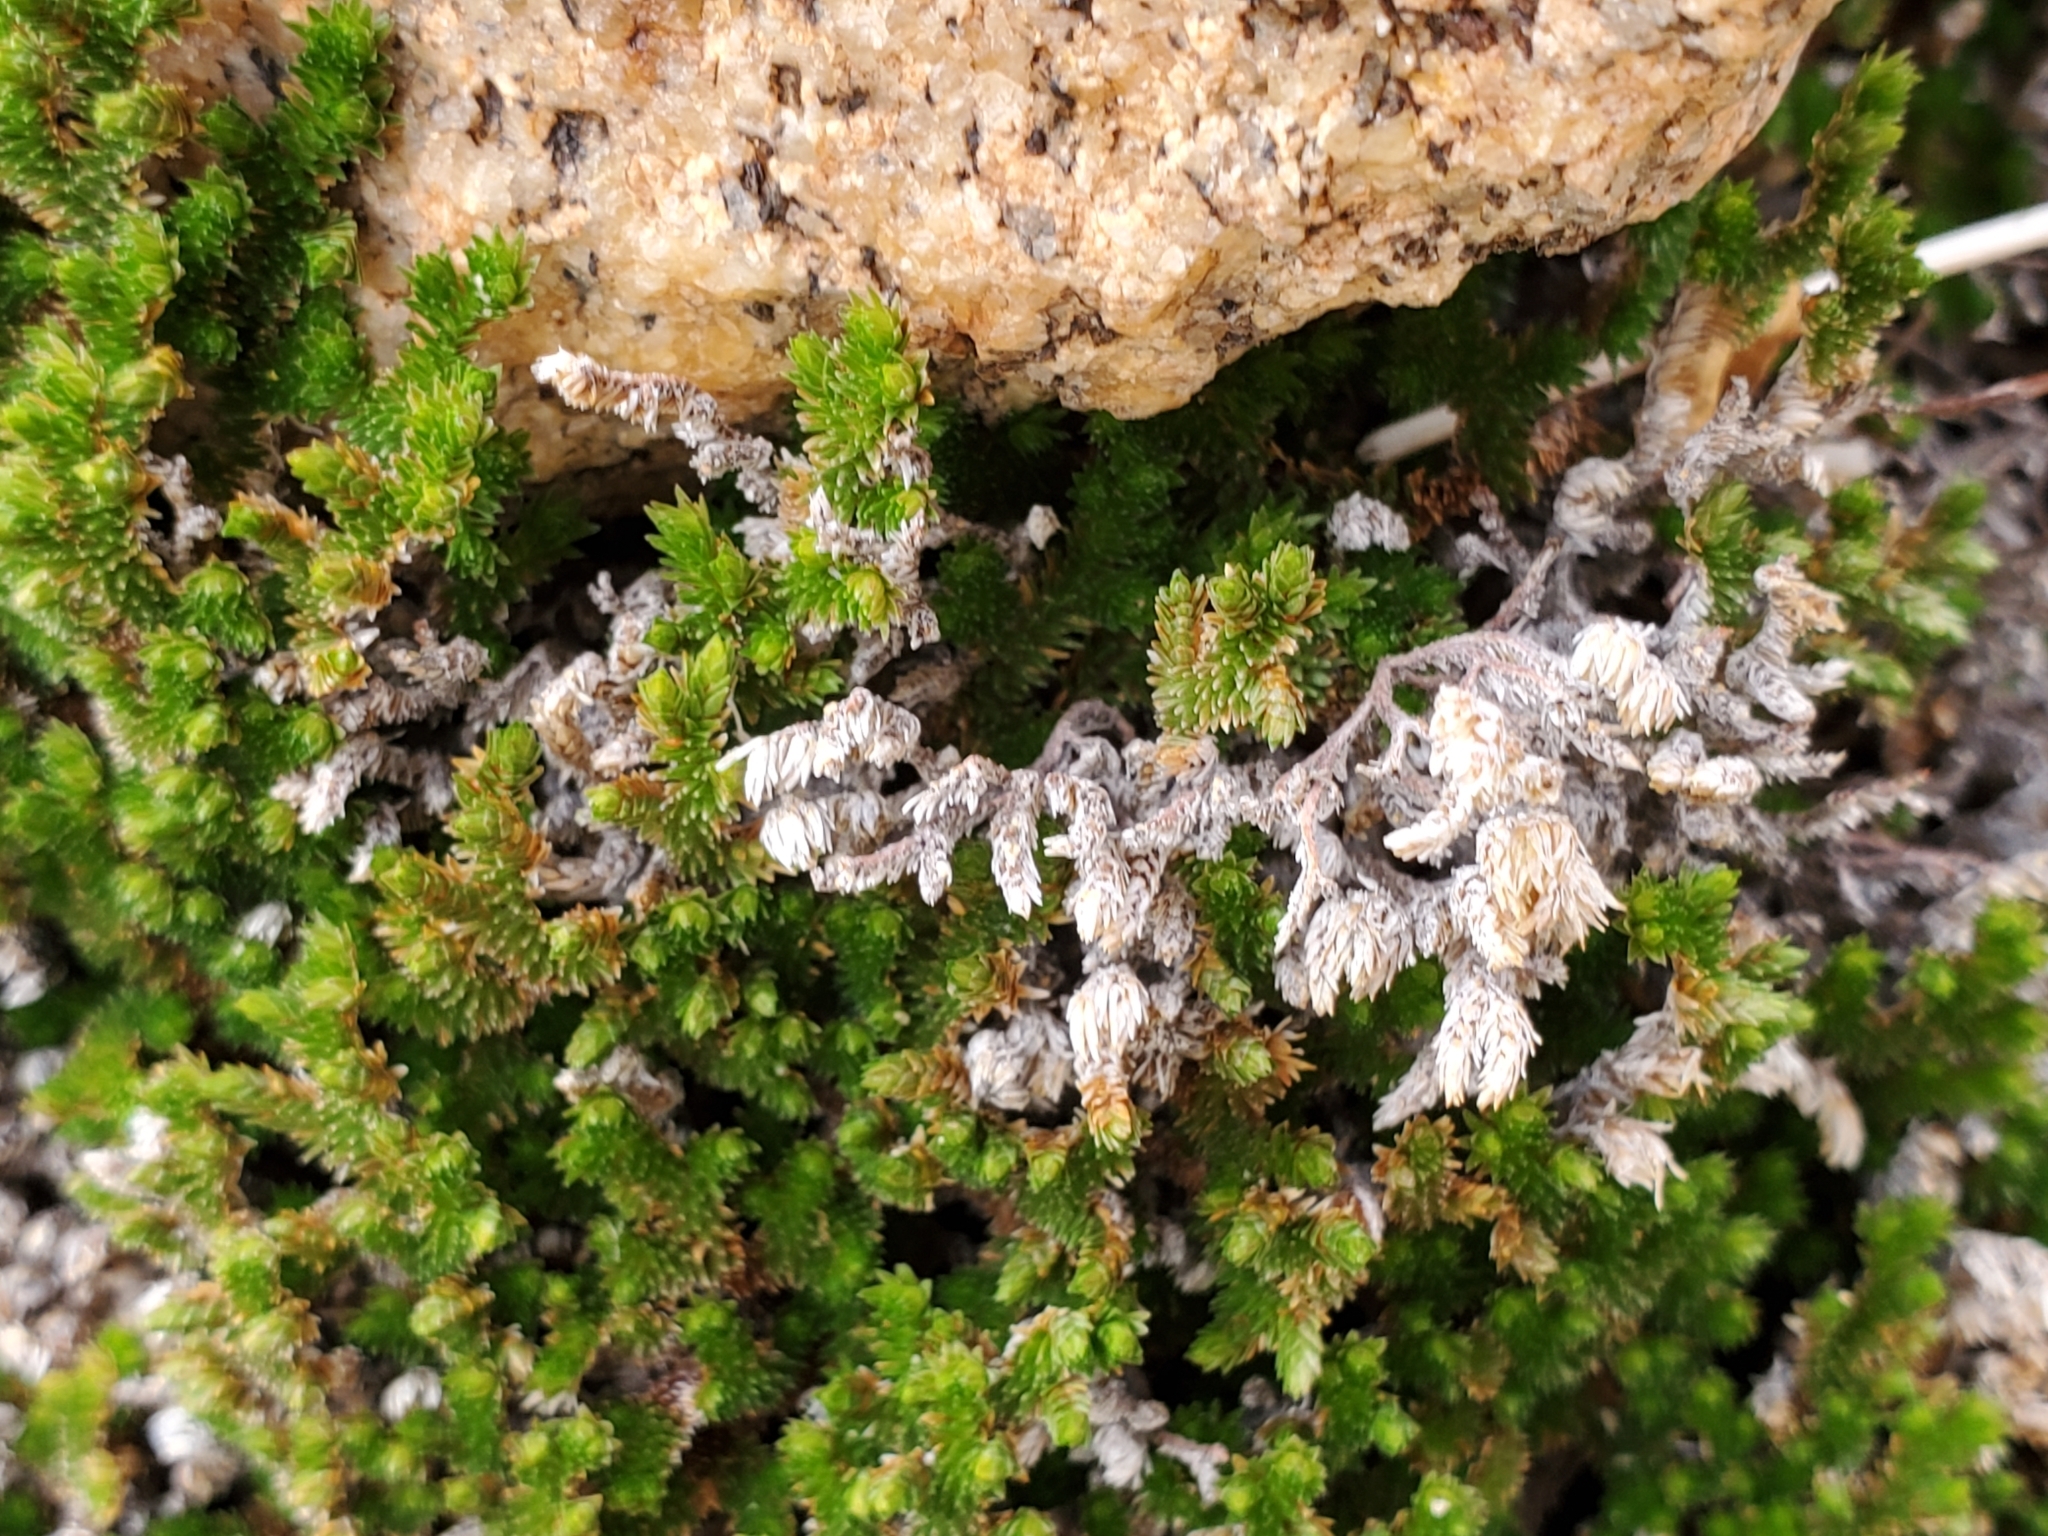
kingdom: Plantae
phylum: Tracheophyta
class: Lycopodiopsida
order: Selaginellales
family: Selaginellaceae
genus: Selaginella
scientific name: Selaginella eremophila
